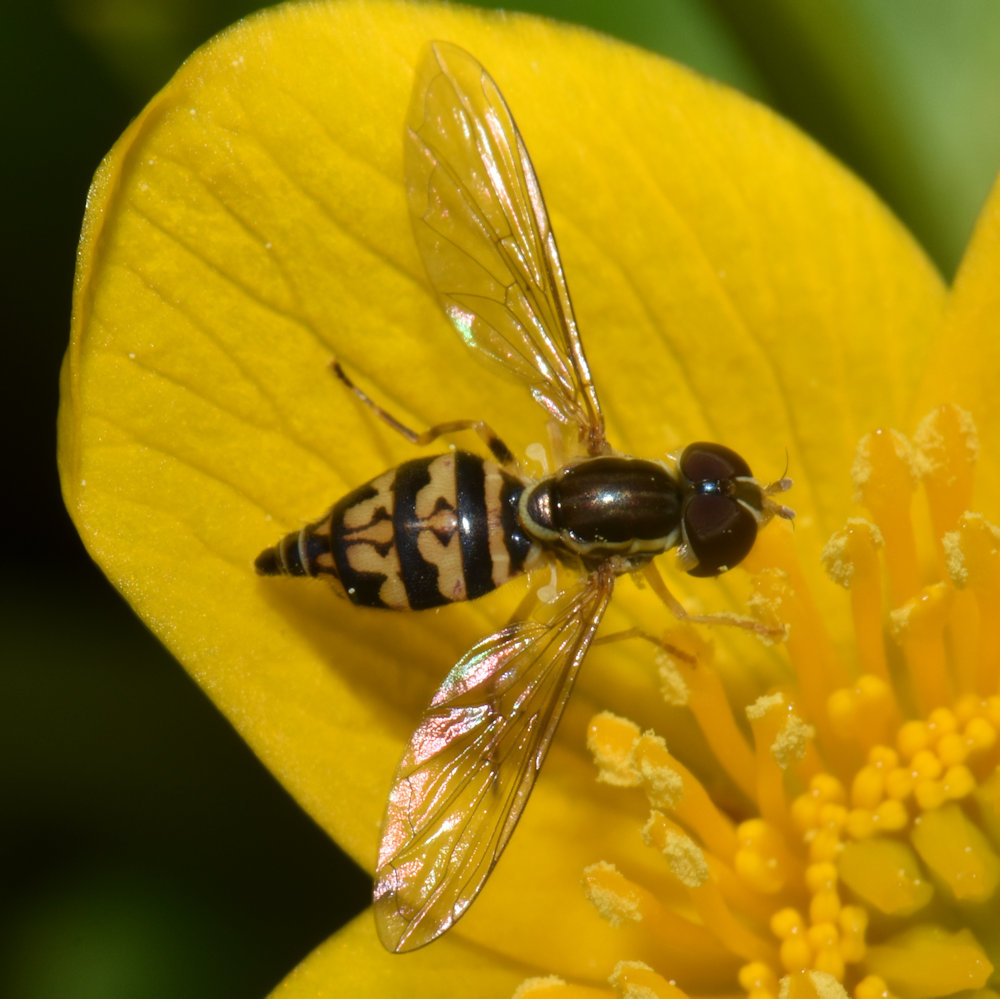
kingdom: Animalia
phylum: Arthropoda
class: Insecta
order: Diptera
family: Syrphidae
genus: Toxomerus
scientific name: Toxomerus geminatus
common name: Eastern calligrapher
